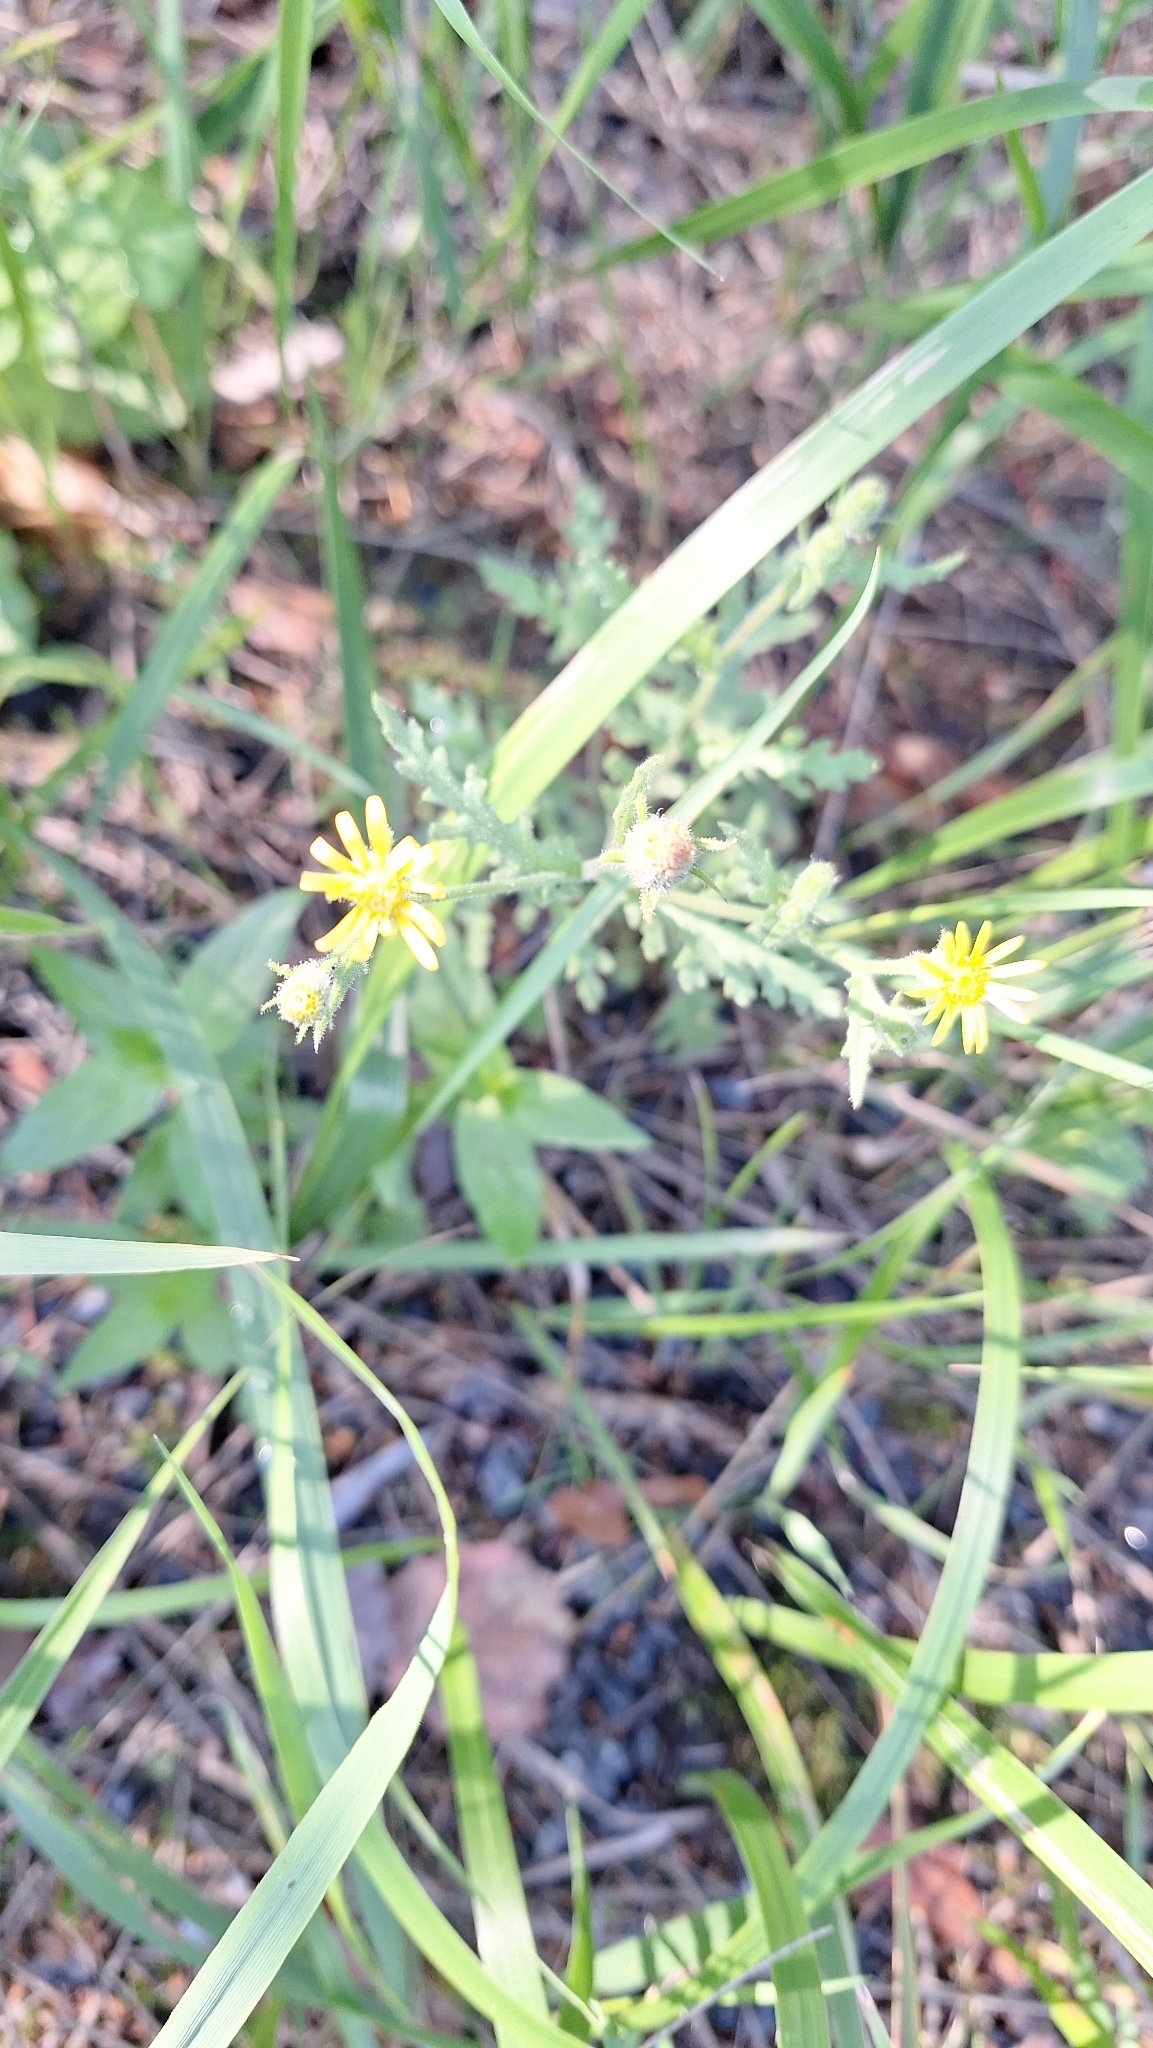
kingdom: Plantae
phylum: Tracheophyta
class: Magnoliopsida
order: Asterales
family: Asteraceae
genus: Senecio
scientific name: Senecio viscosus
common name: Sticky groundsel
